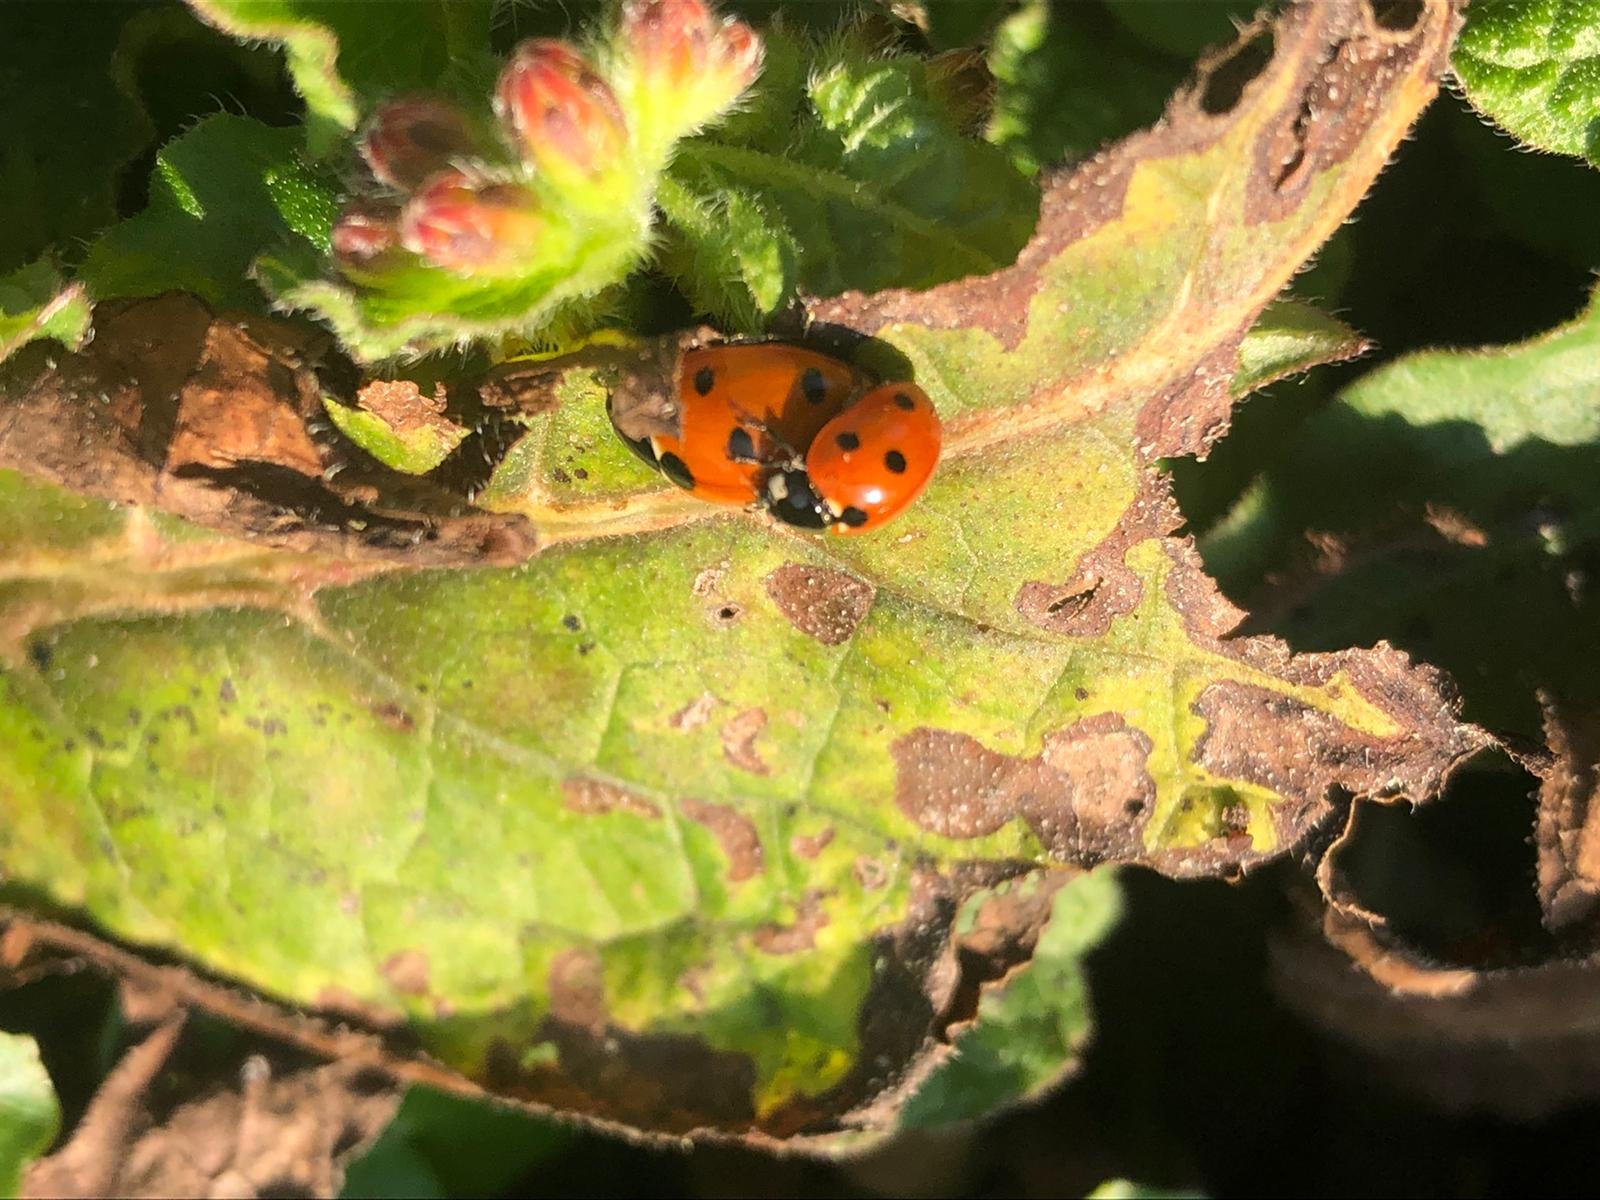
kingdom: Animalia
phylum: Arthropoda
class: Insecta
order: Coleoptera
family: Coccinellidae
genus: Coccinella
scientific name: Coccinella septempunctata
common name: Sevenspotted lady beetle
